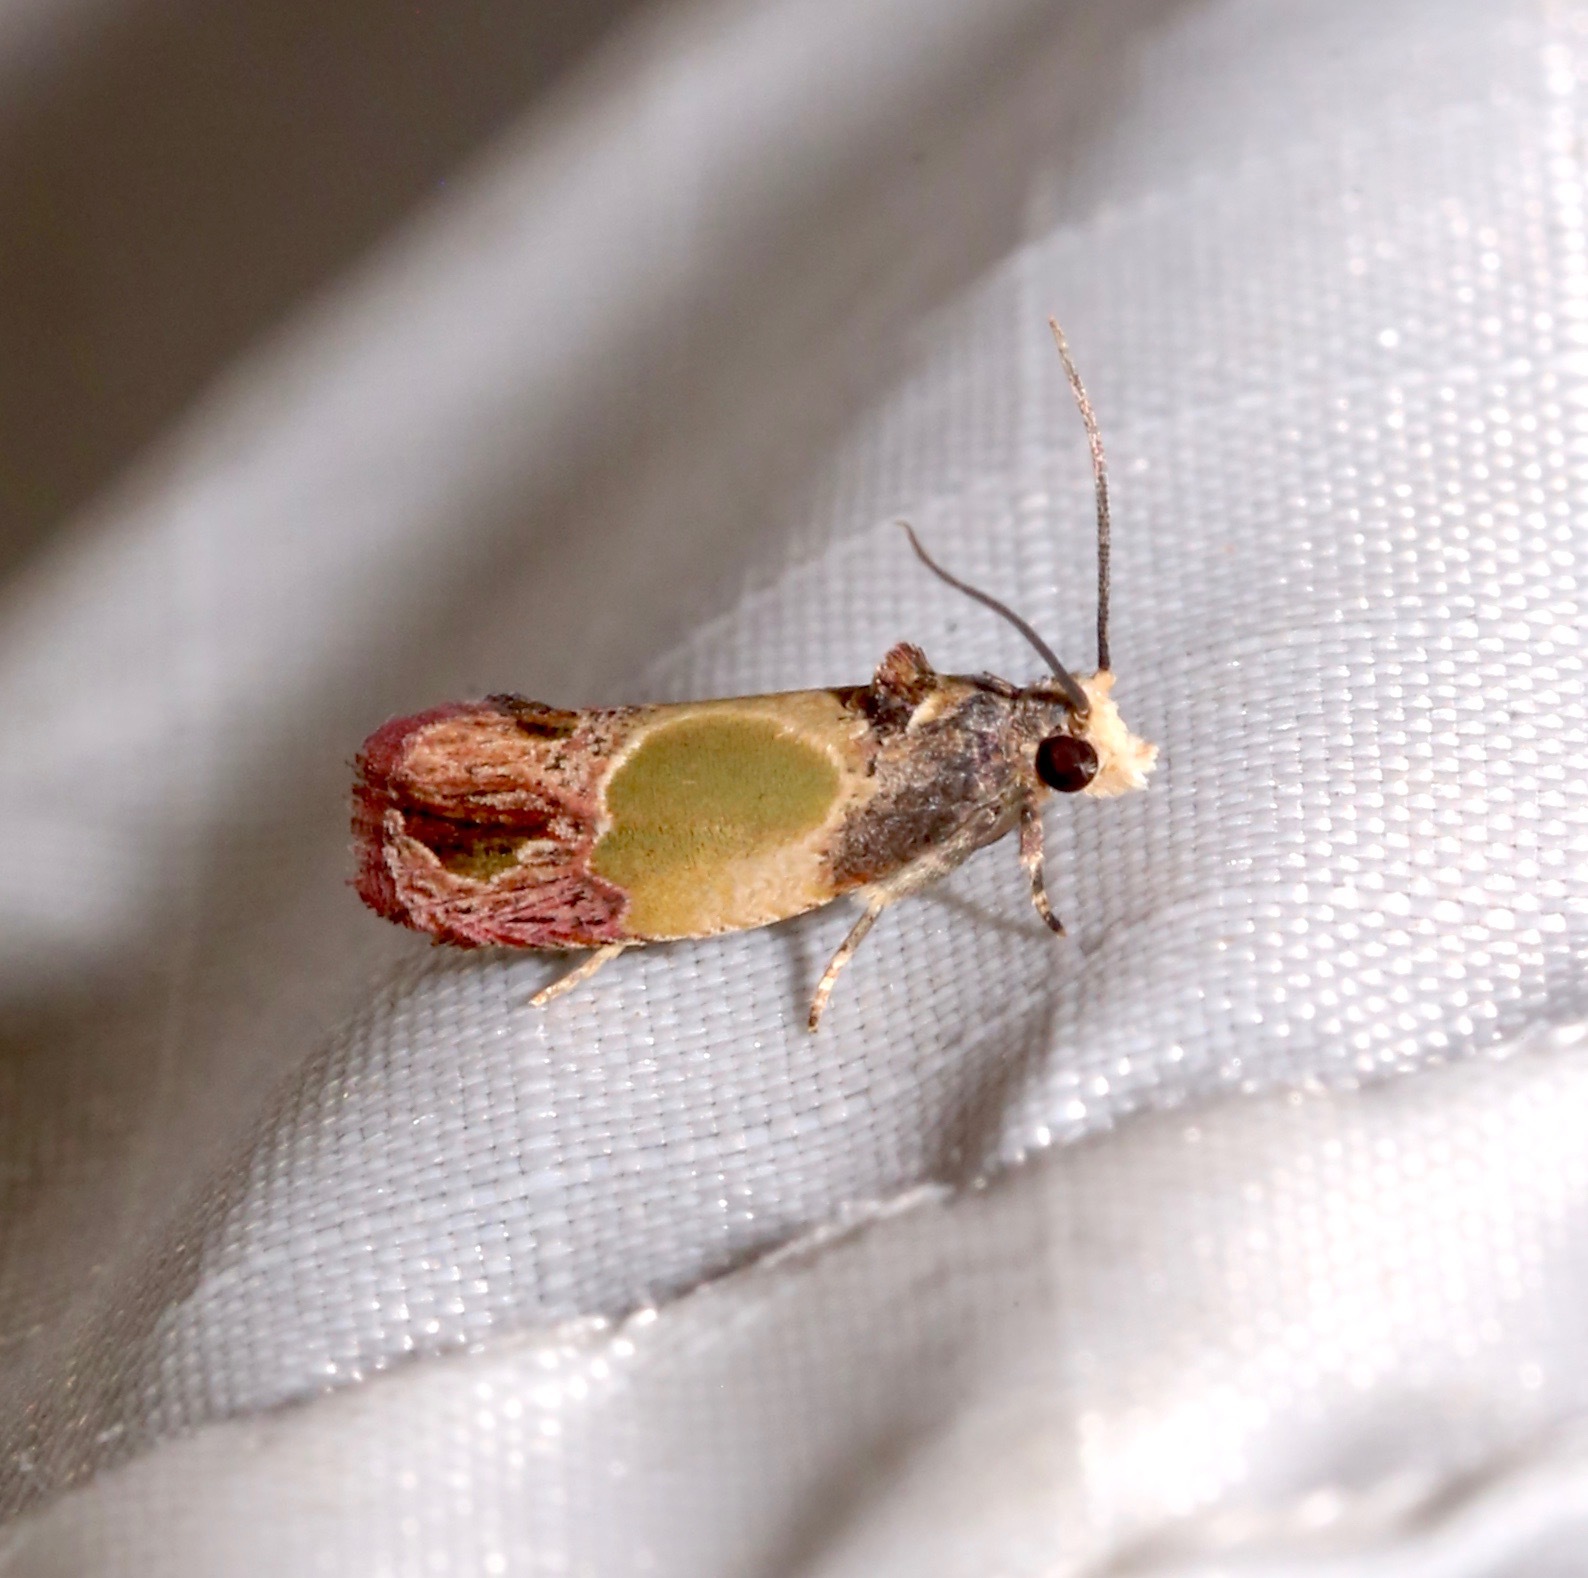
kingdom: Animalia
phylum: Arthropoda
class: Insecta
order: Lepidoptera
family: Tortricidae
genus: Eumarozia
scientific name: Eumarozia malachitana
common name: Sculptured moth
